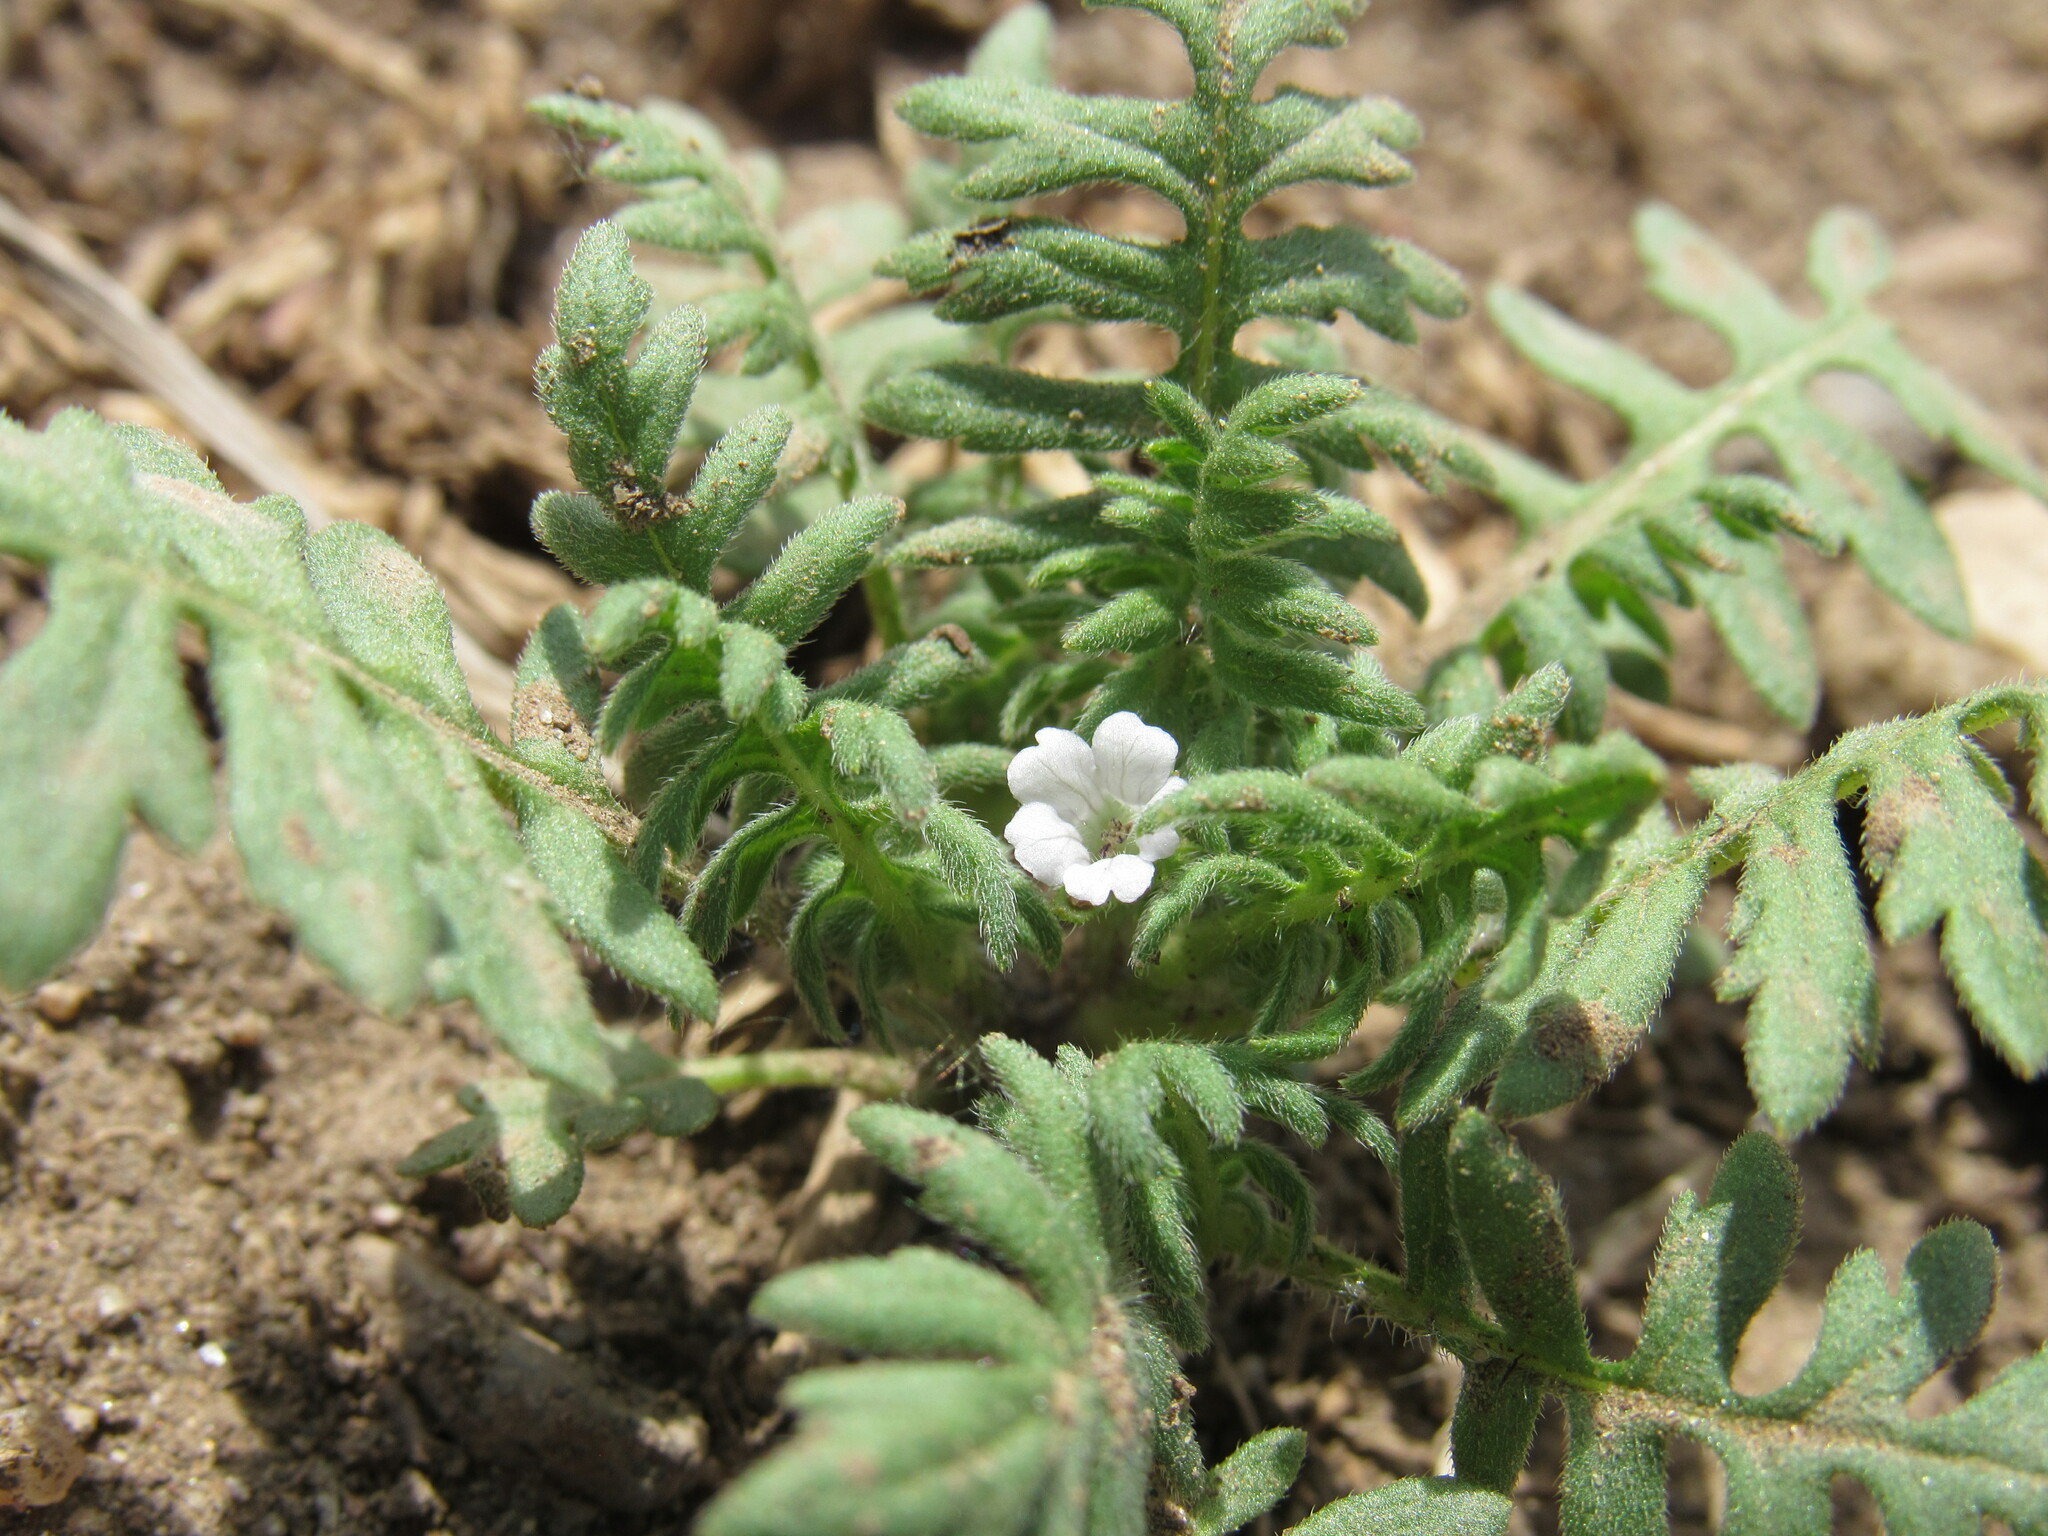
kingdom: Plantae
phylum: Tracheophyta
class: Magnoliopsida
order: Boraginales
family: Hydrophyllaceae
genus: Ellisia
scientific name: Ellisia nyctelea
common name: Aunt lucy
